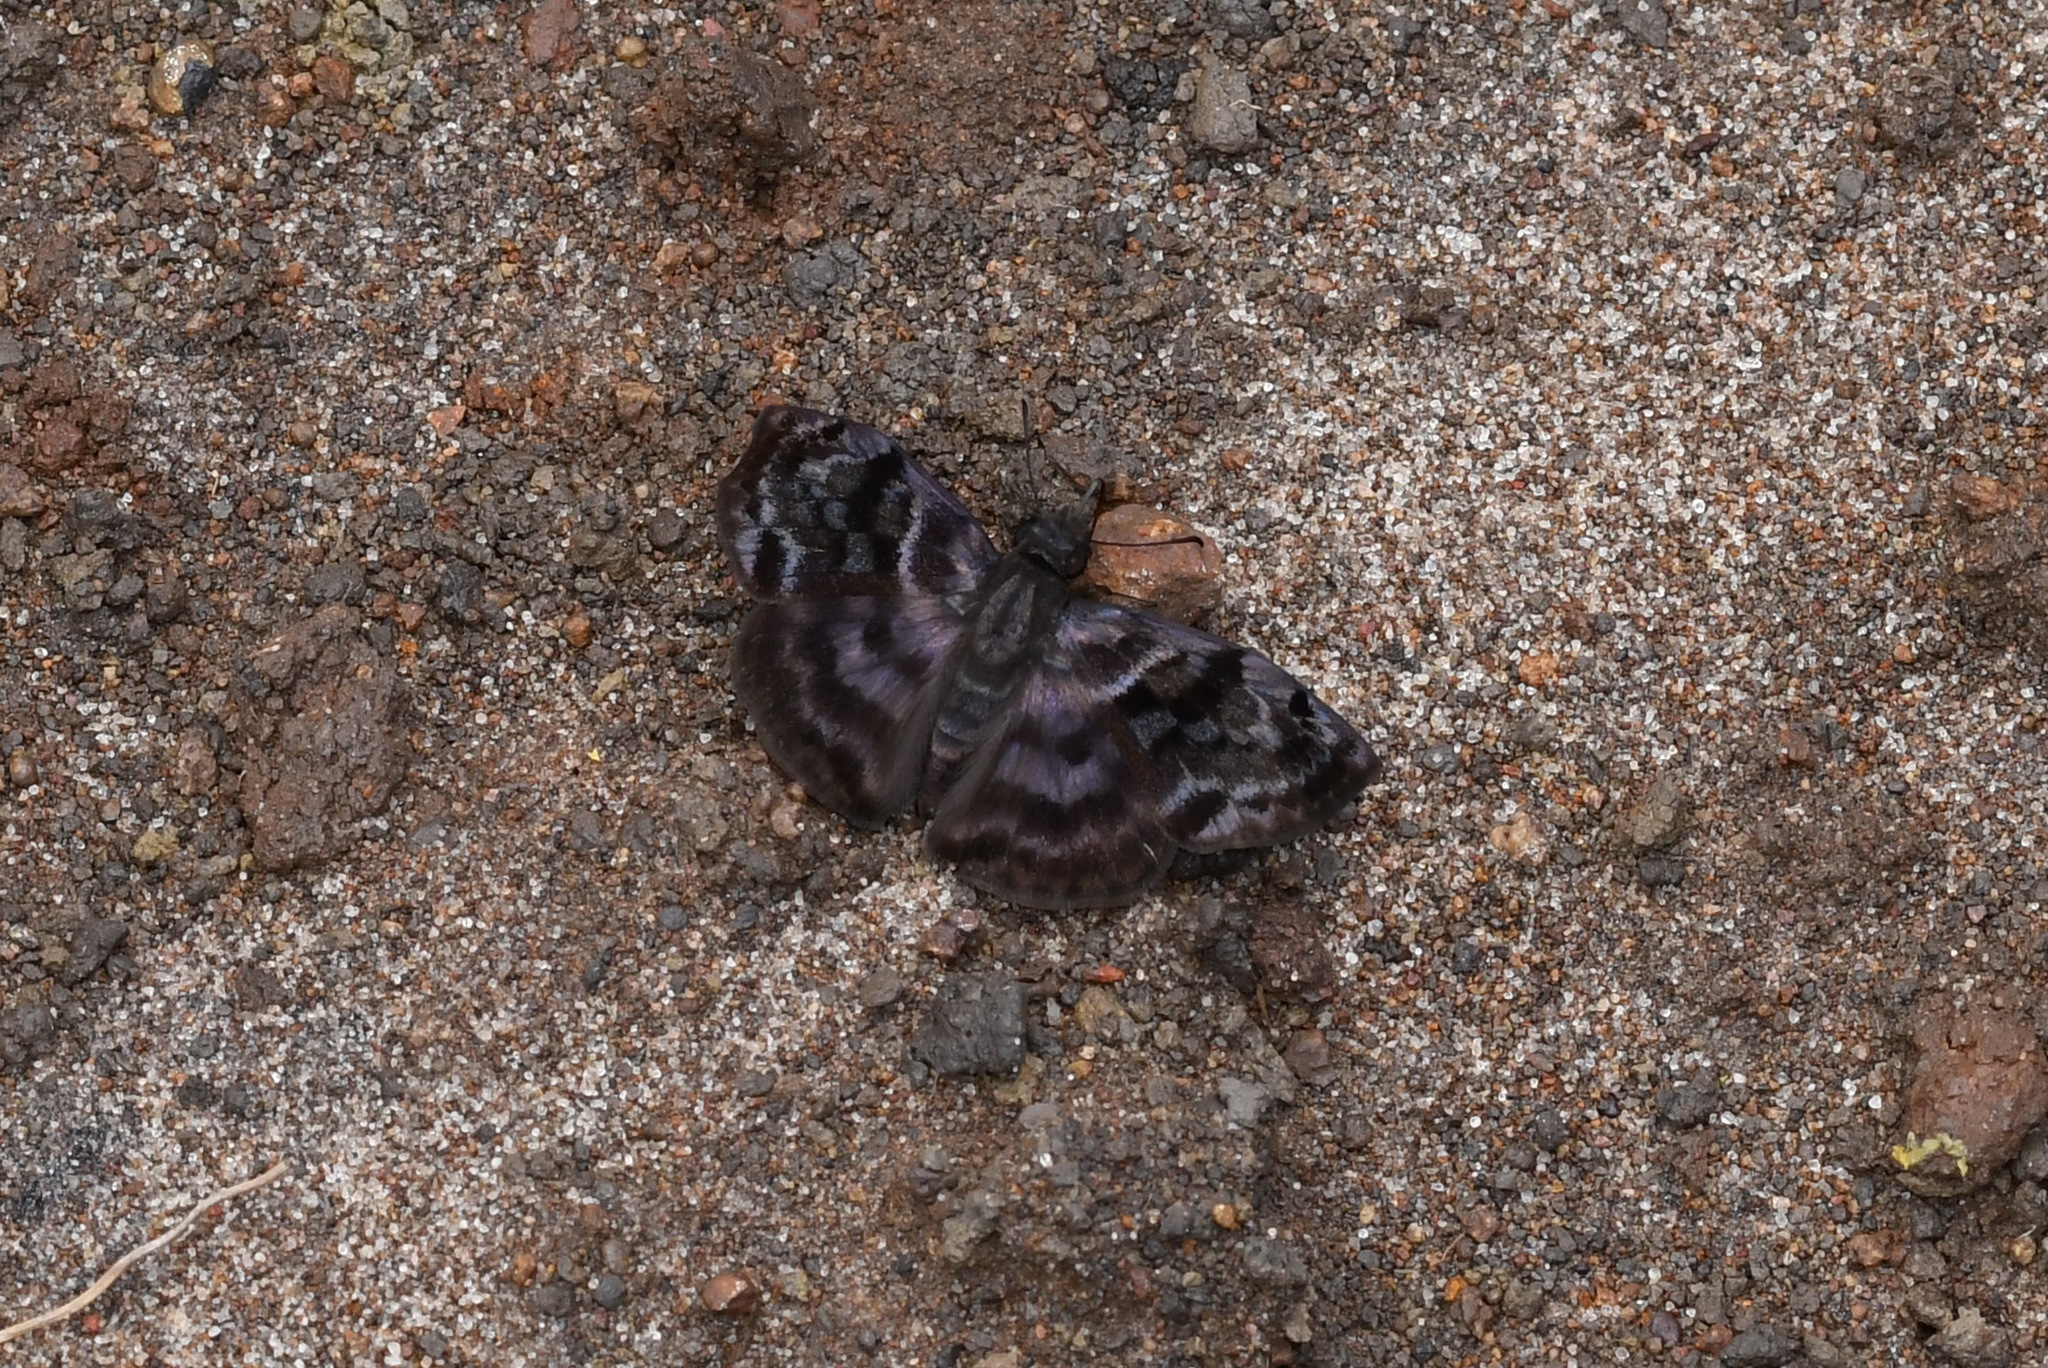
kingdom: Animalia
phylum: Arthropoda
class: Insecta
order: Lepidoptera
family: Hesperiidae
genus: Ebrietas
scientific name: Ebrietas anacreon
